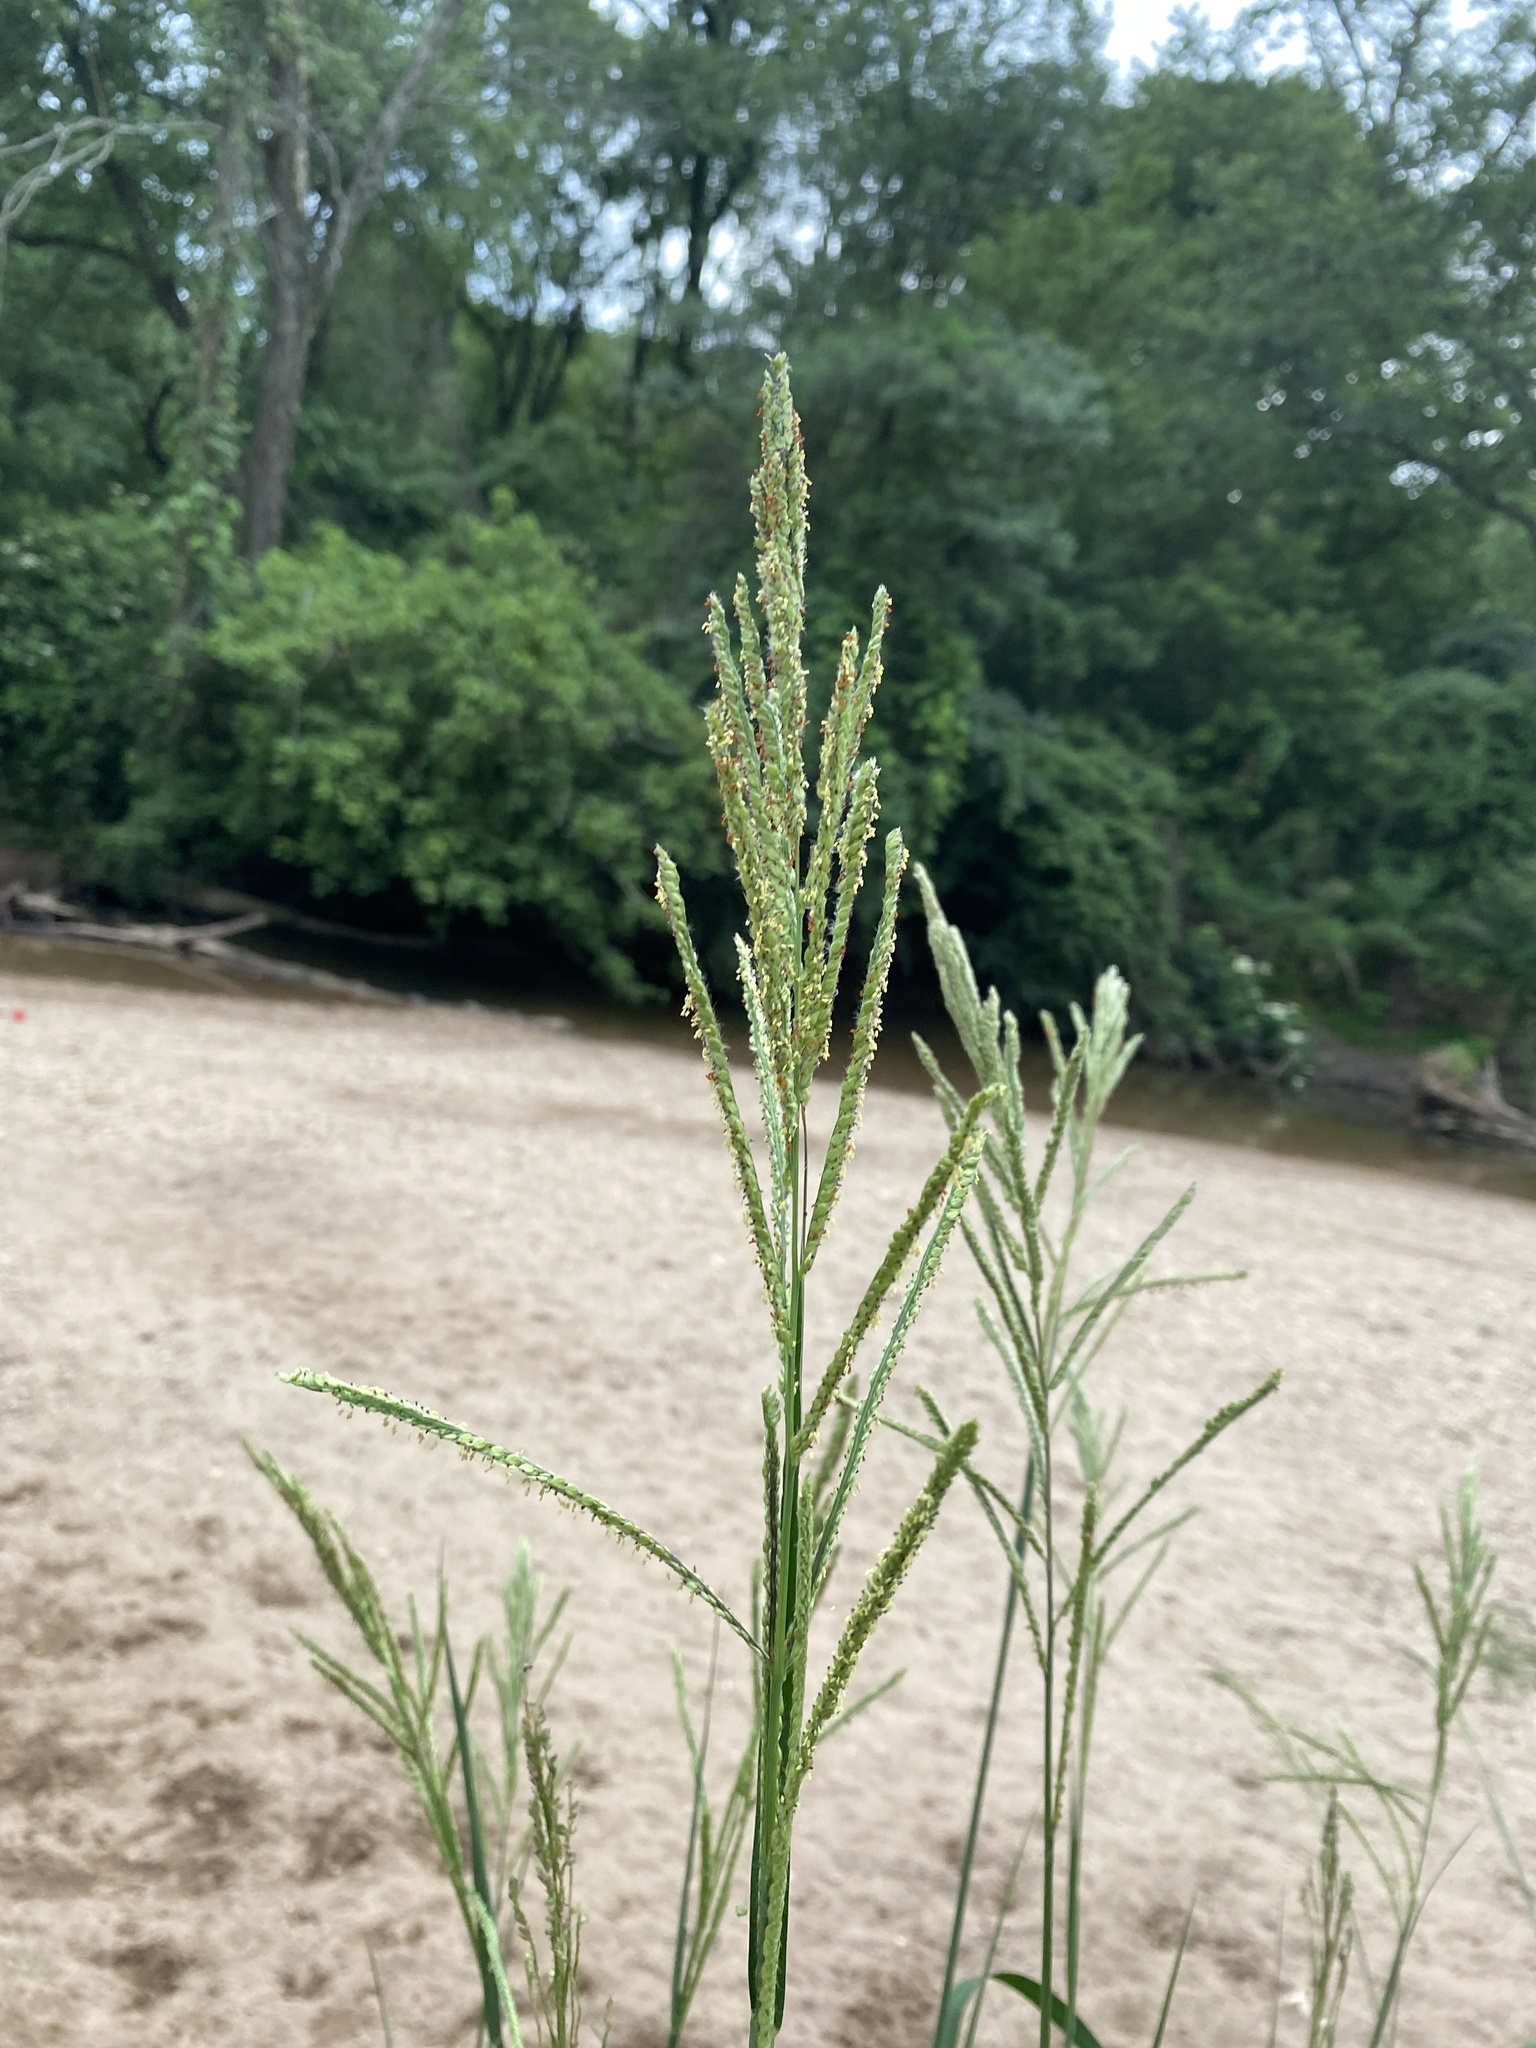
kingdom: Plantae
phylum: Tracheophyta
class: Liliopsida
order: Poales
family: Poaceae
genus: Paspalum
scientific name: Paspalum urvillei
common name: Vasey's grass
